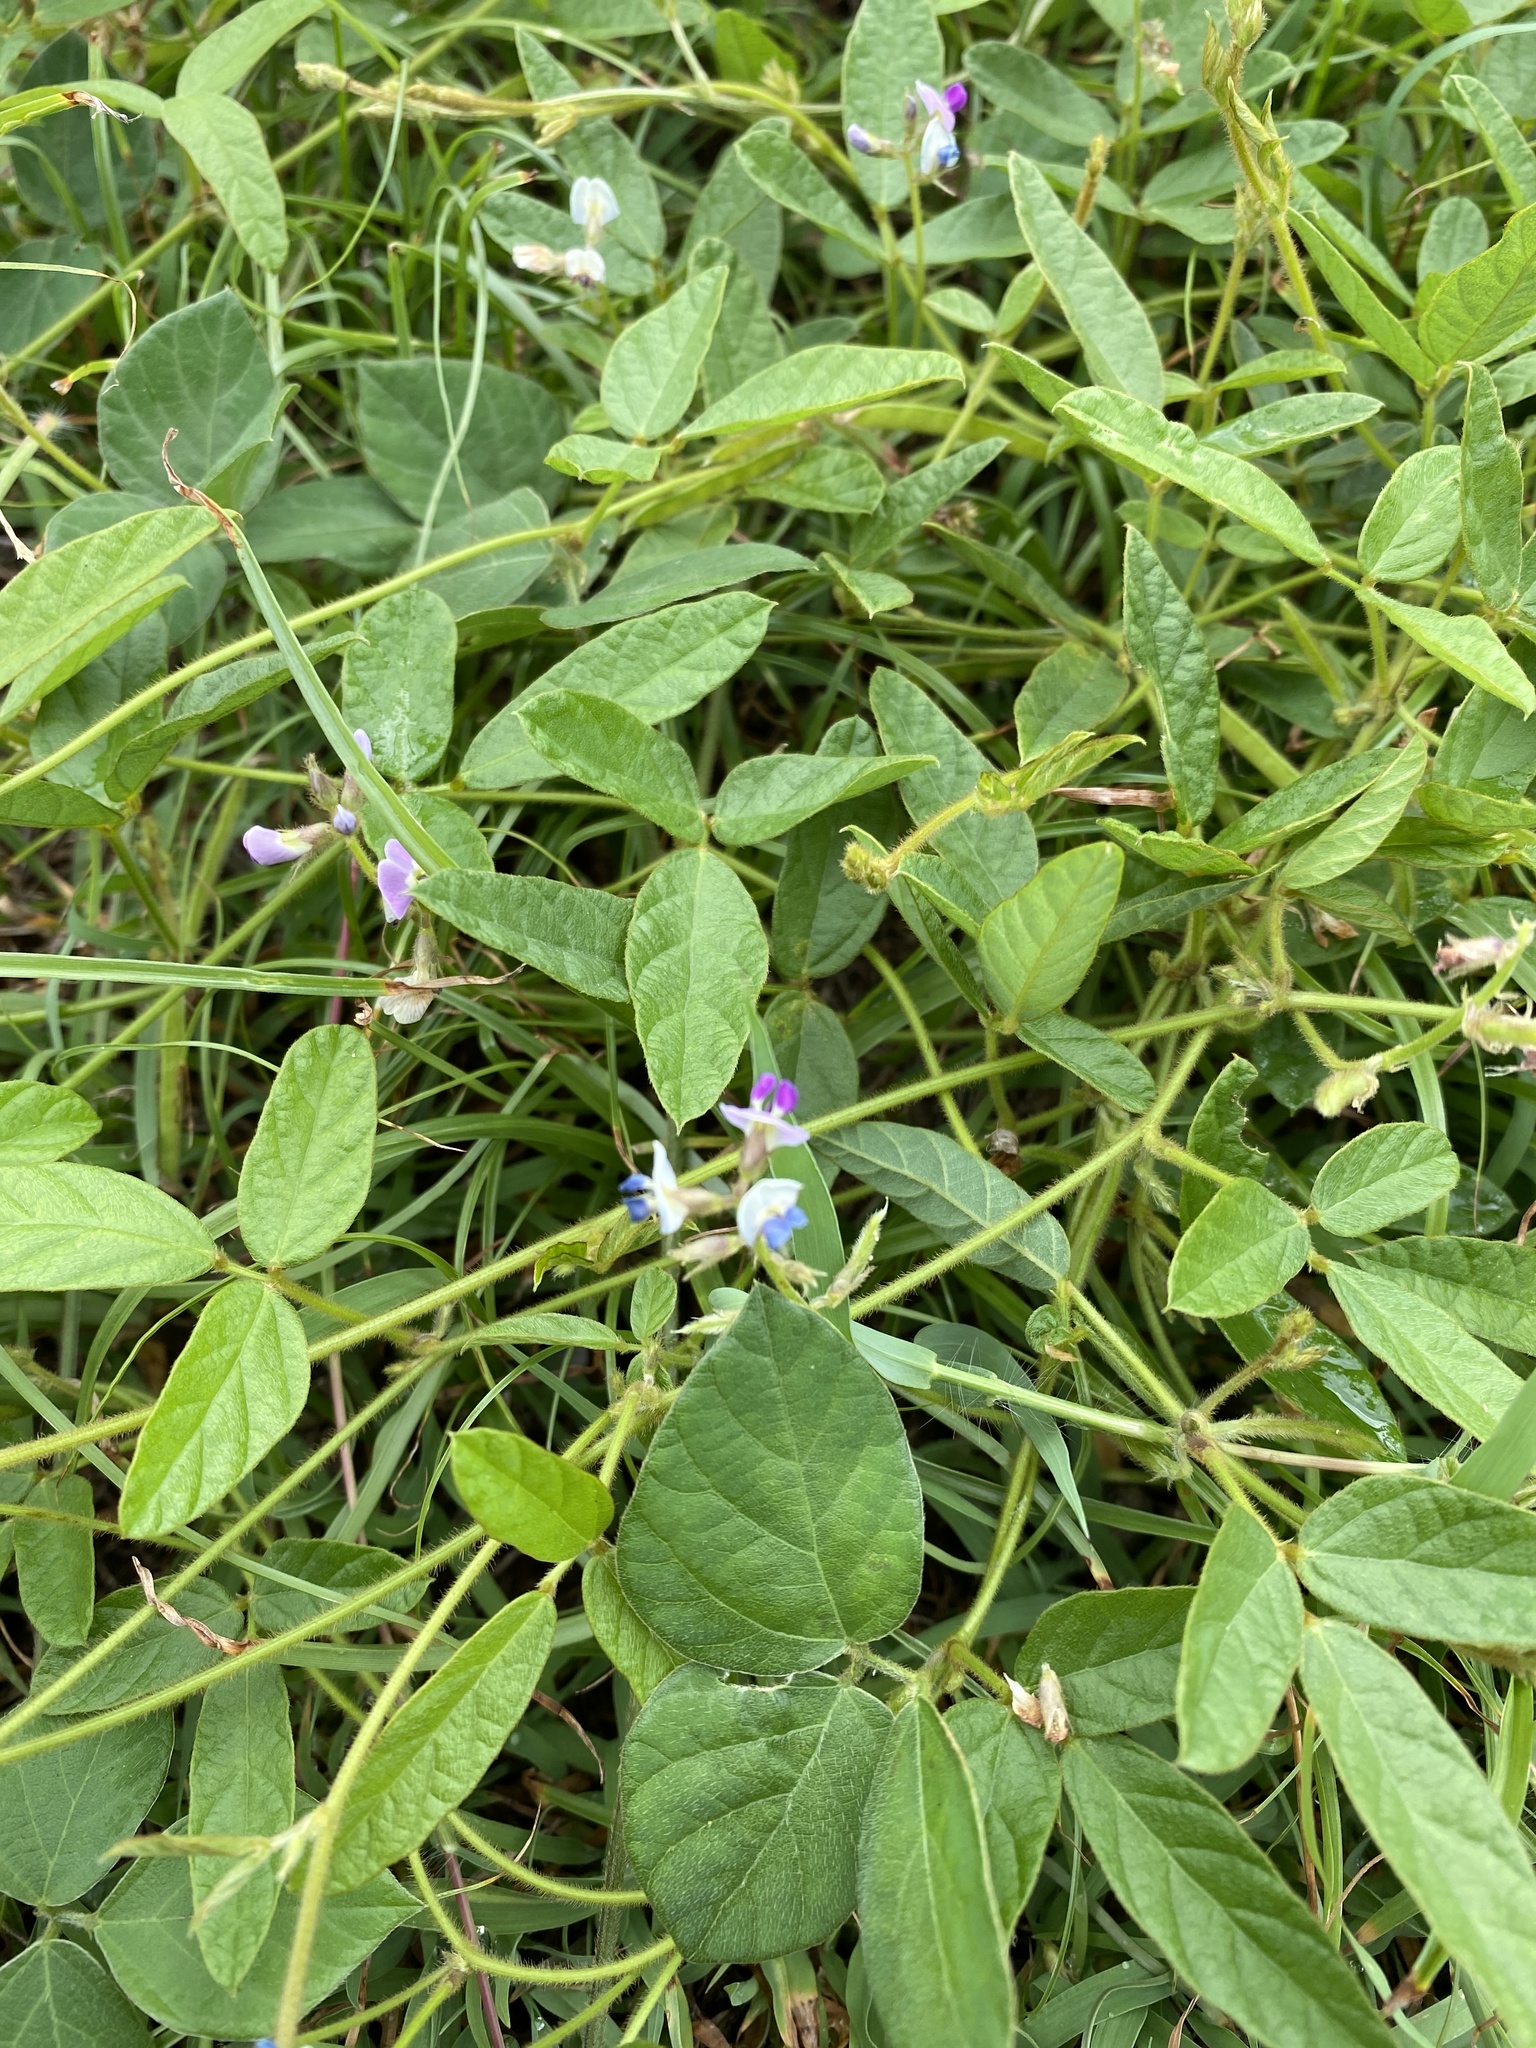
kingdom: Plantae
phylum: Tracheophyta
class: Magnoliopsida
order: Fabales
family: Fabaceae
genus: Glycine
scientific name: Glycine tomentella
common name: Hairy glycine
